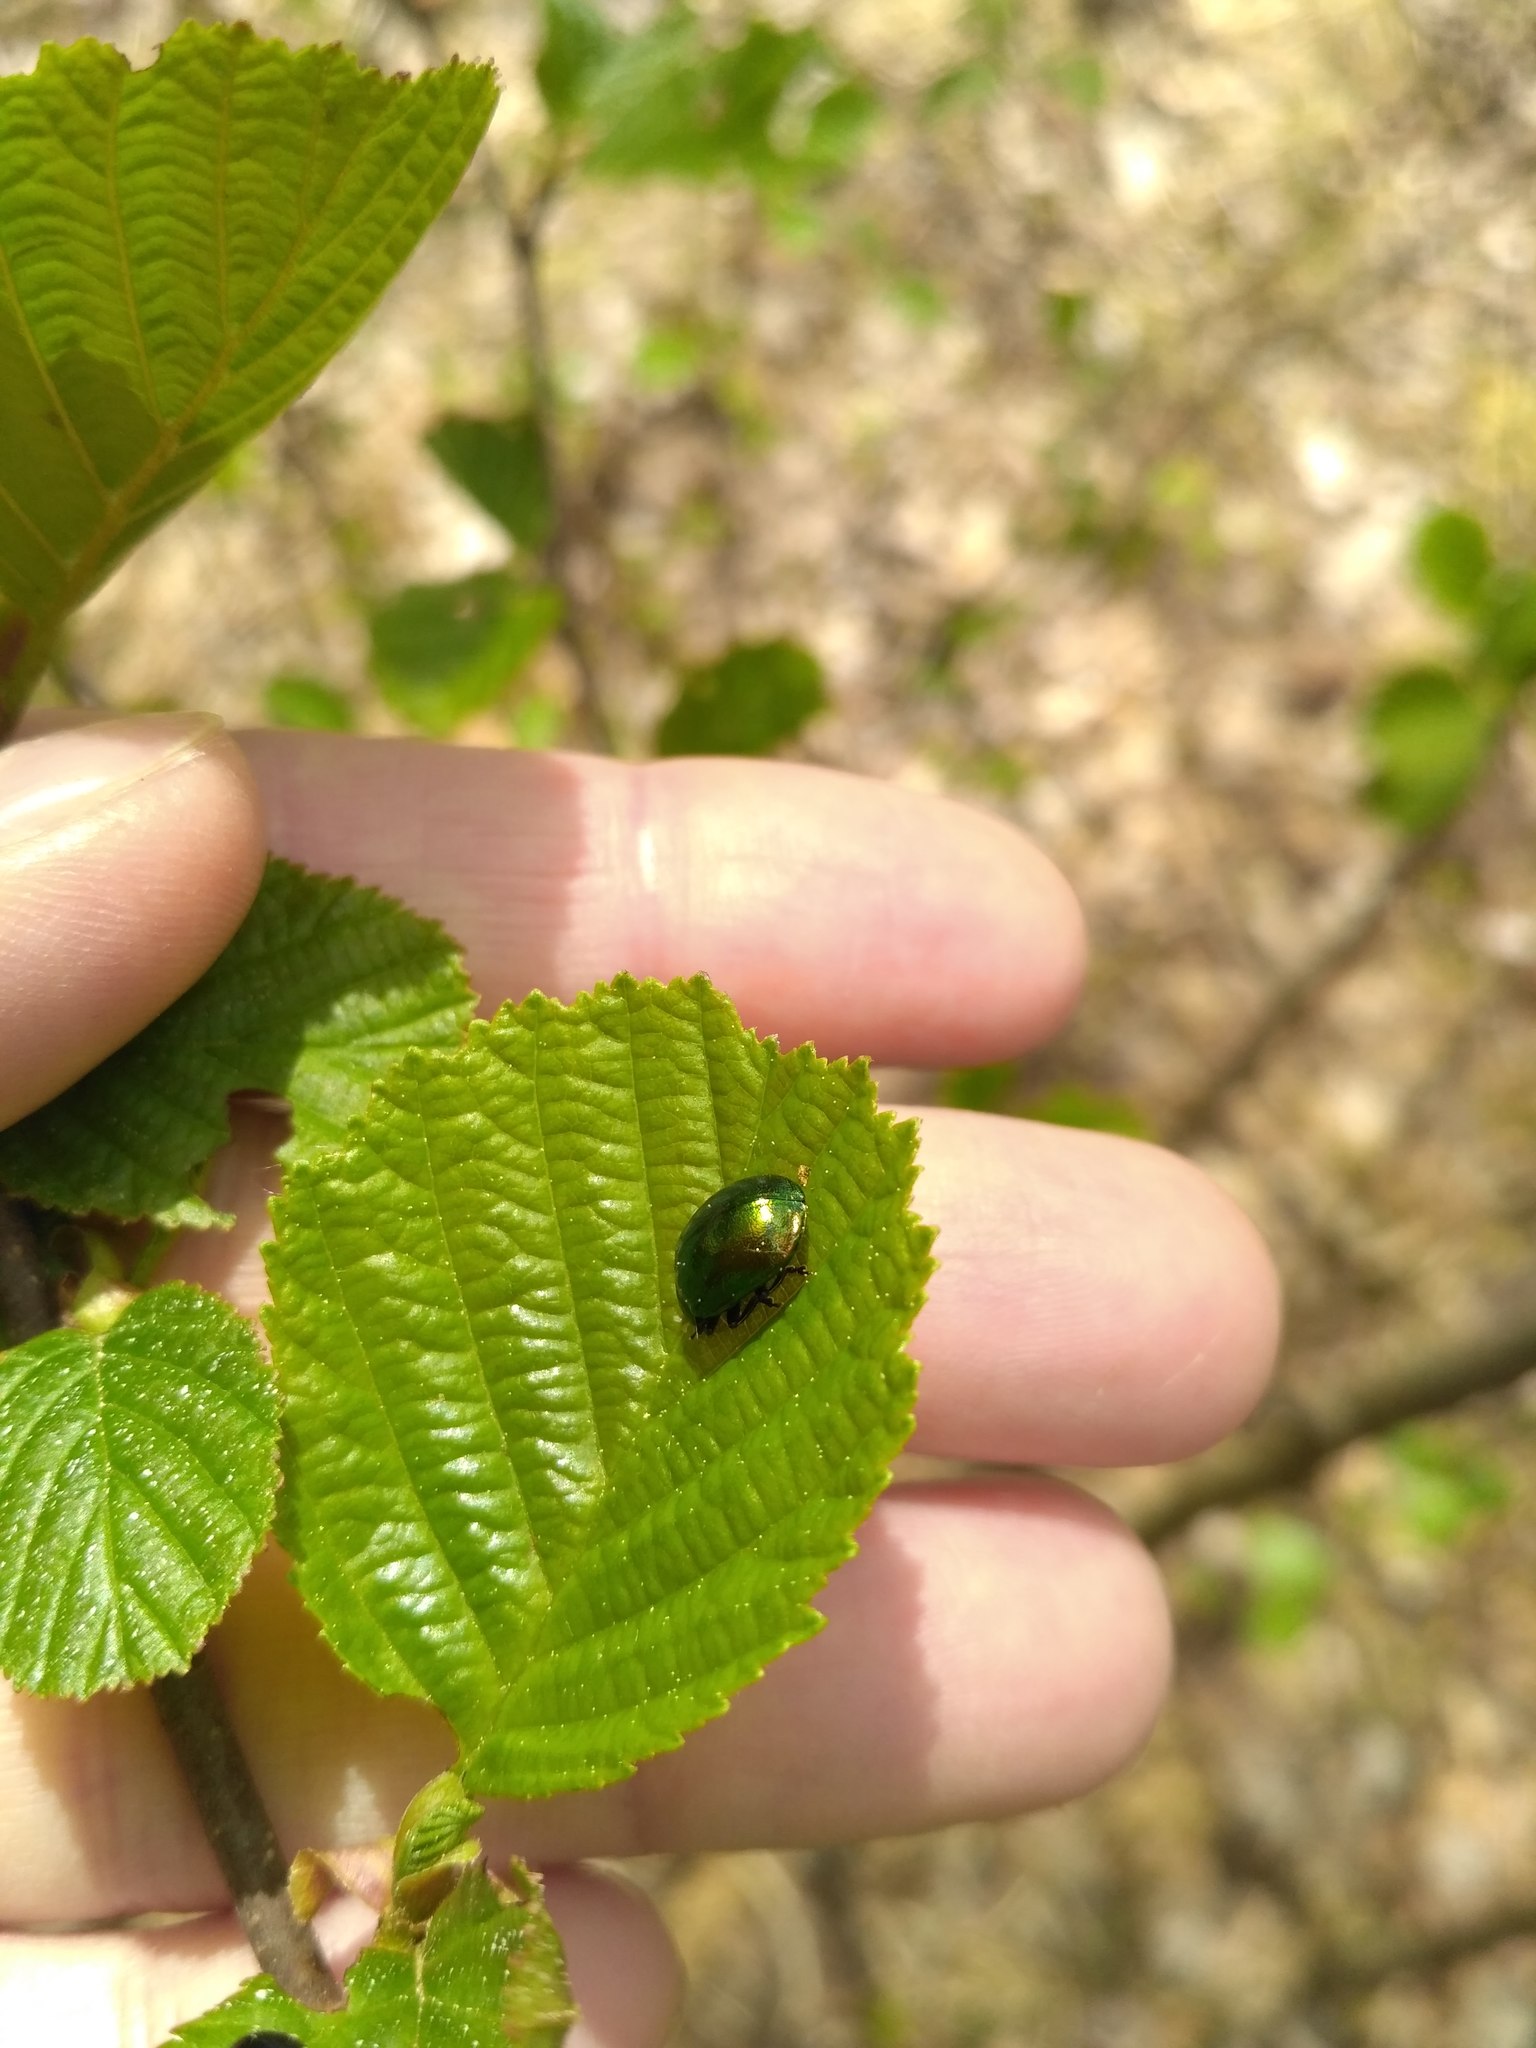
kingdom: Plantae
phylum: Tracheophyta
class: Magnoliopsida
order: Fagales
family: Betulaceae
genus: Alnus
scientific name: Alnus glutinosa
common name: Black alder
